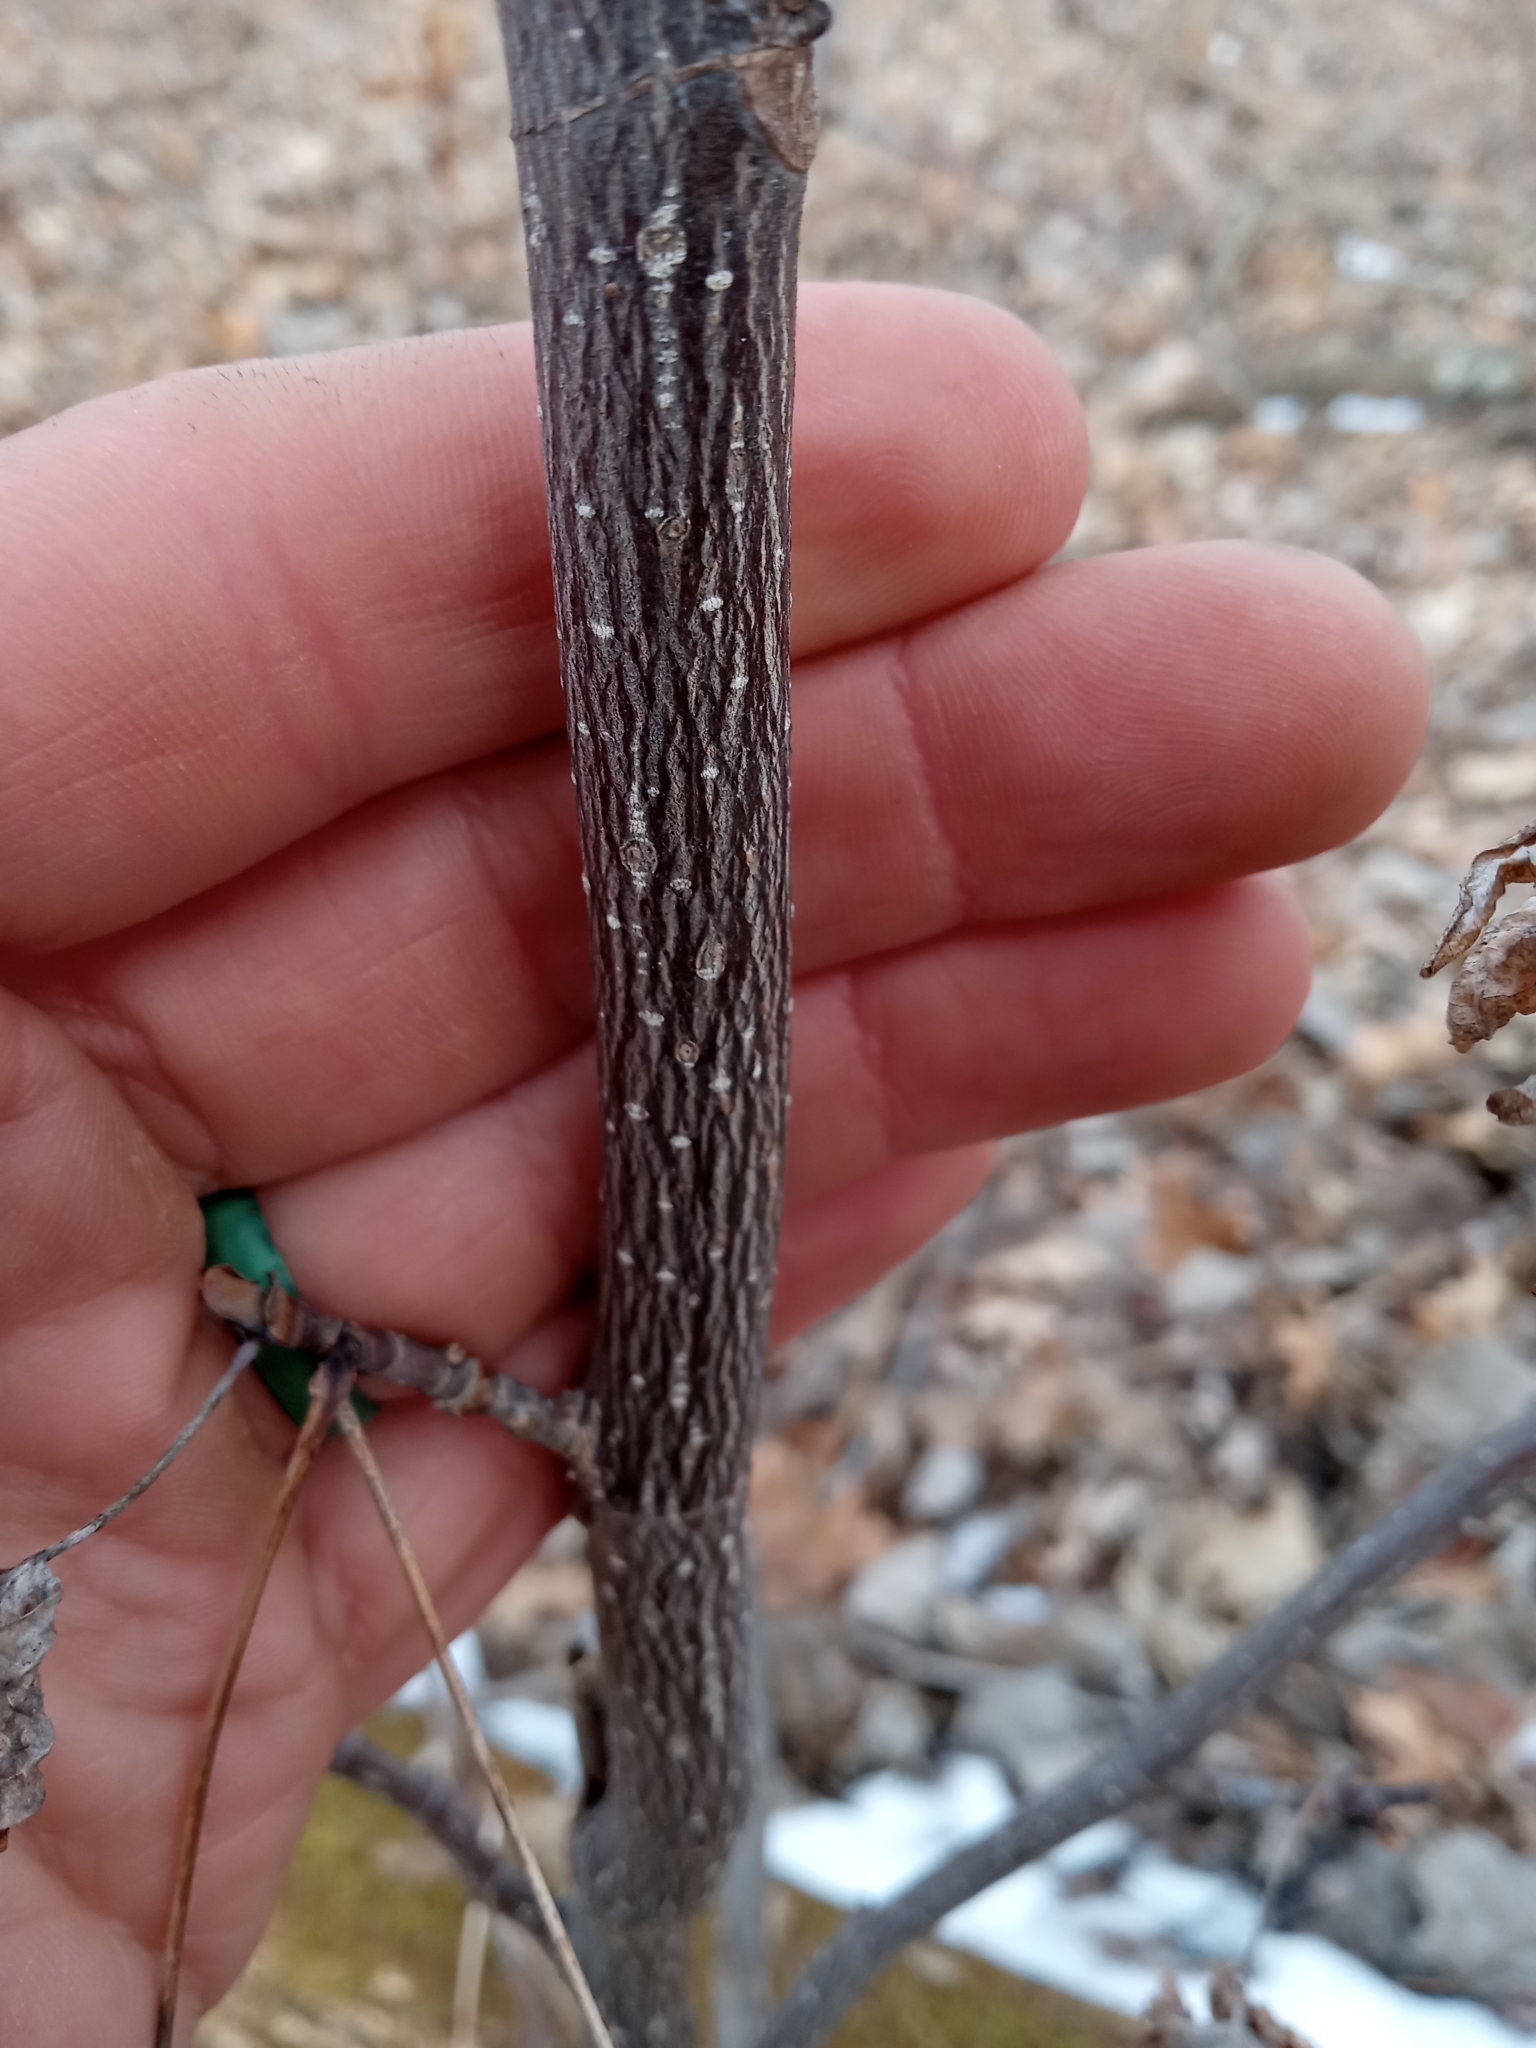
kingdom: Plantae
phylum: Tracheophyta
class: Magnoliopsida
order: Magnoliales
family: Magnoliaceae
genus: Liriodendron
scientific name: Liriodendron tulipifera
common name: Tulip tree
